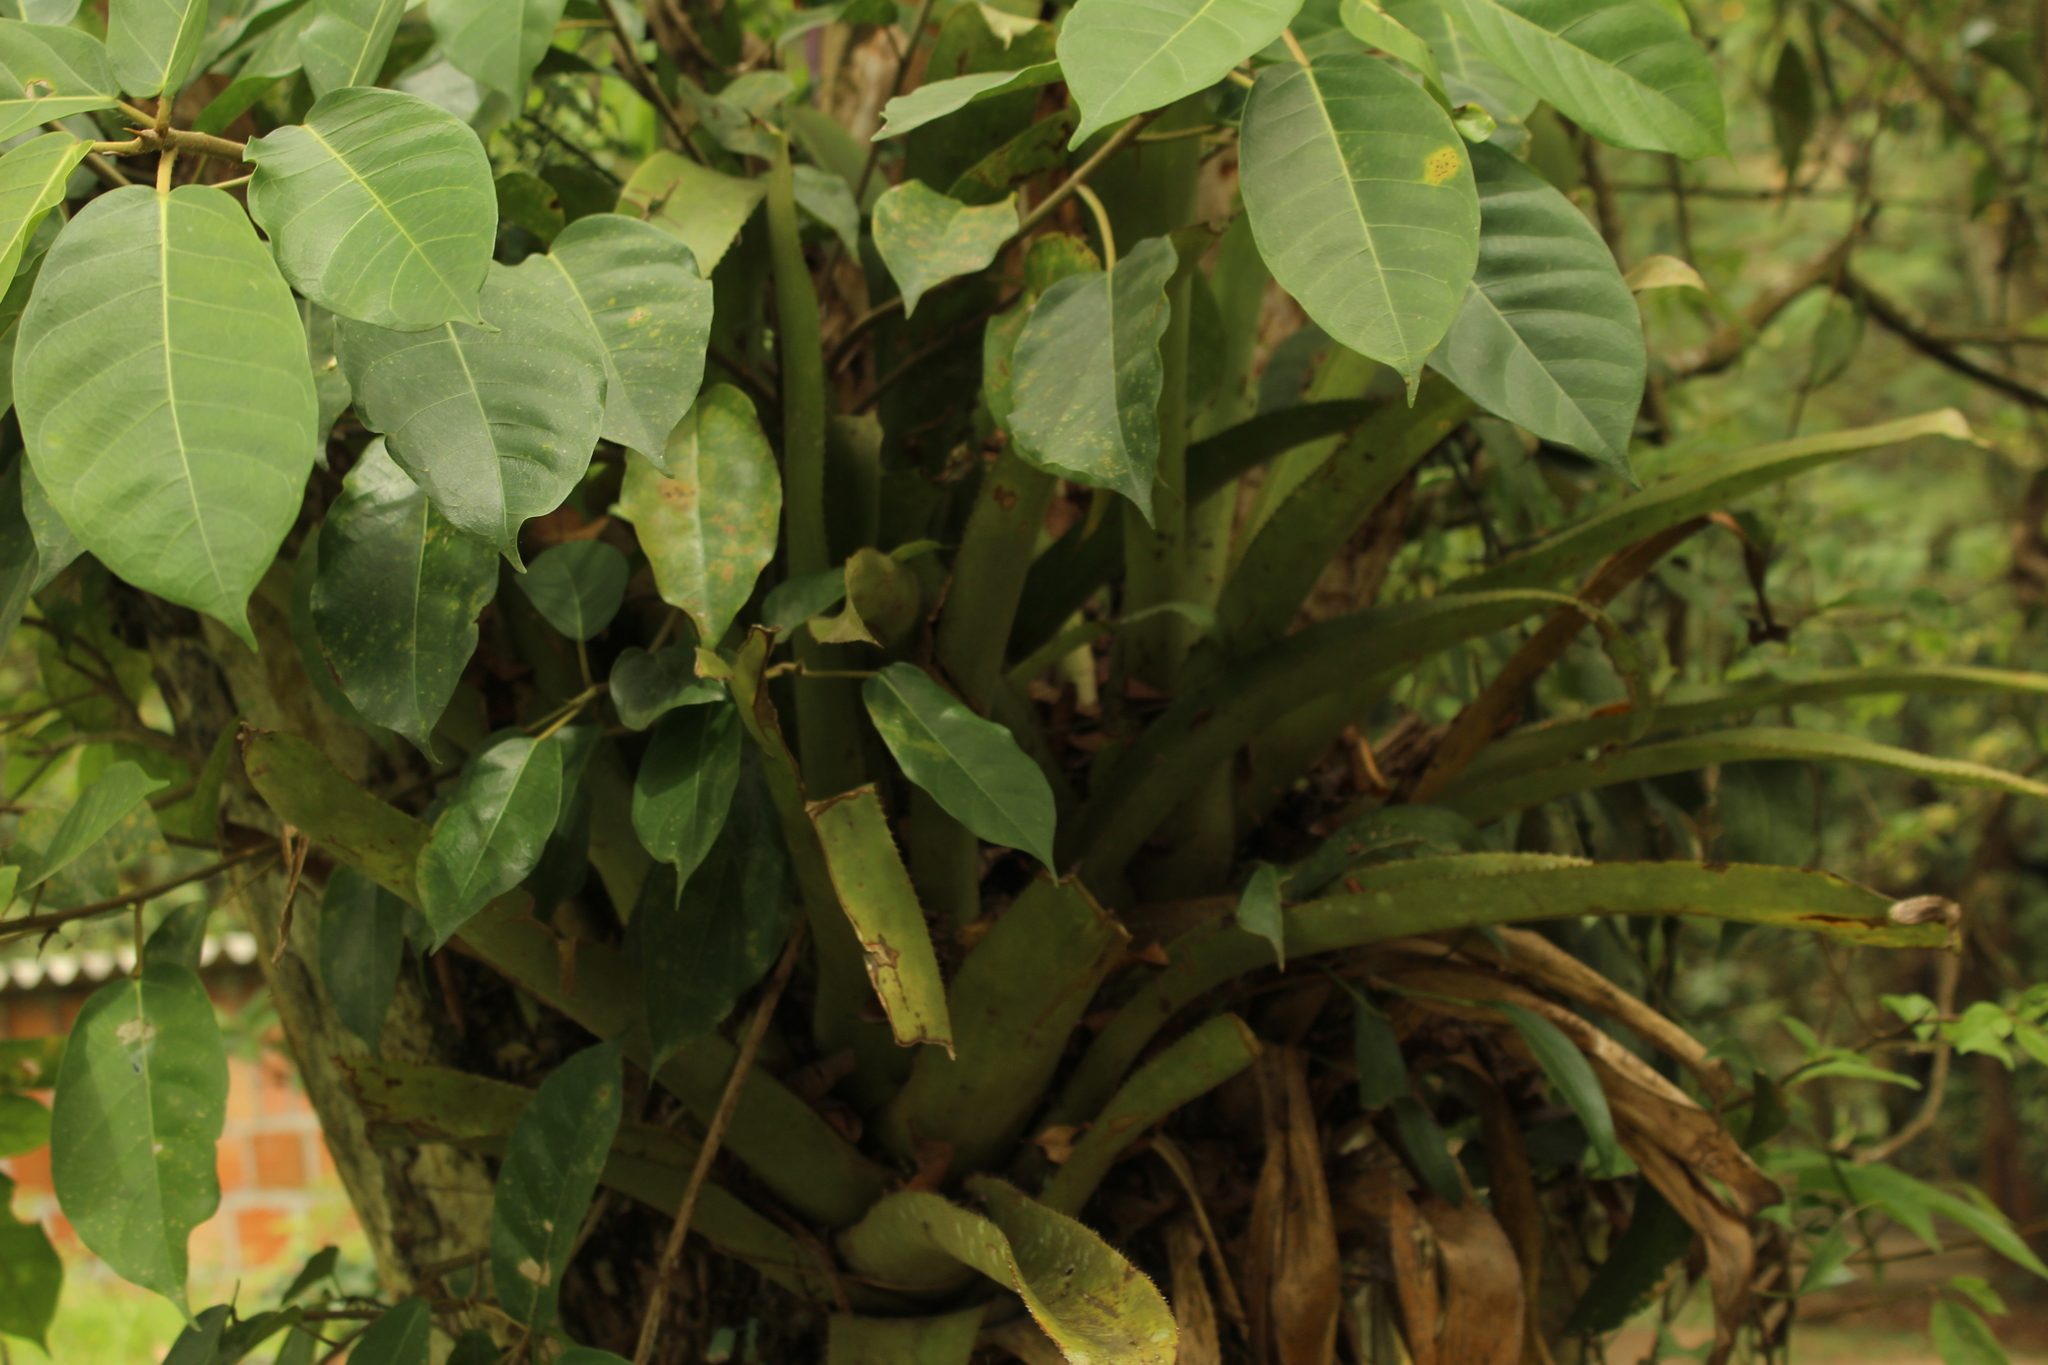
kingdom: Plantae
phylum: Tracheophyta
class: Liliopsida
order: Poales
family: Bromeliaceae
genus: Aechmea
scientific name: Aechmea angustifolia
